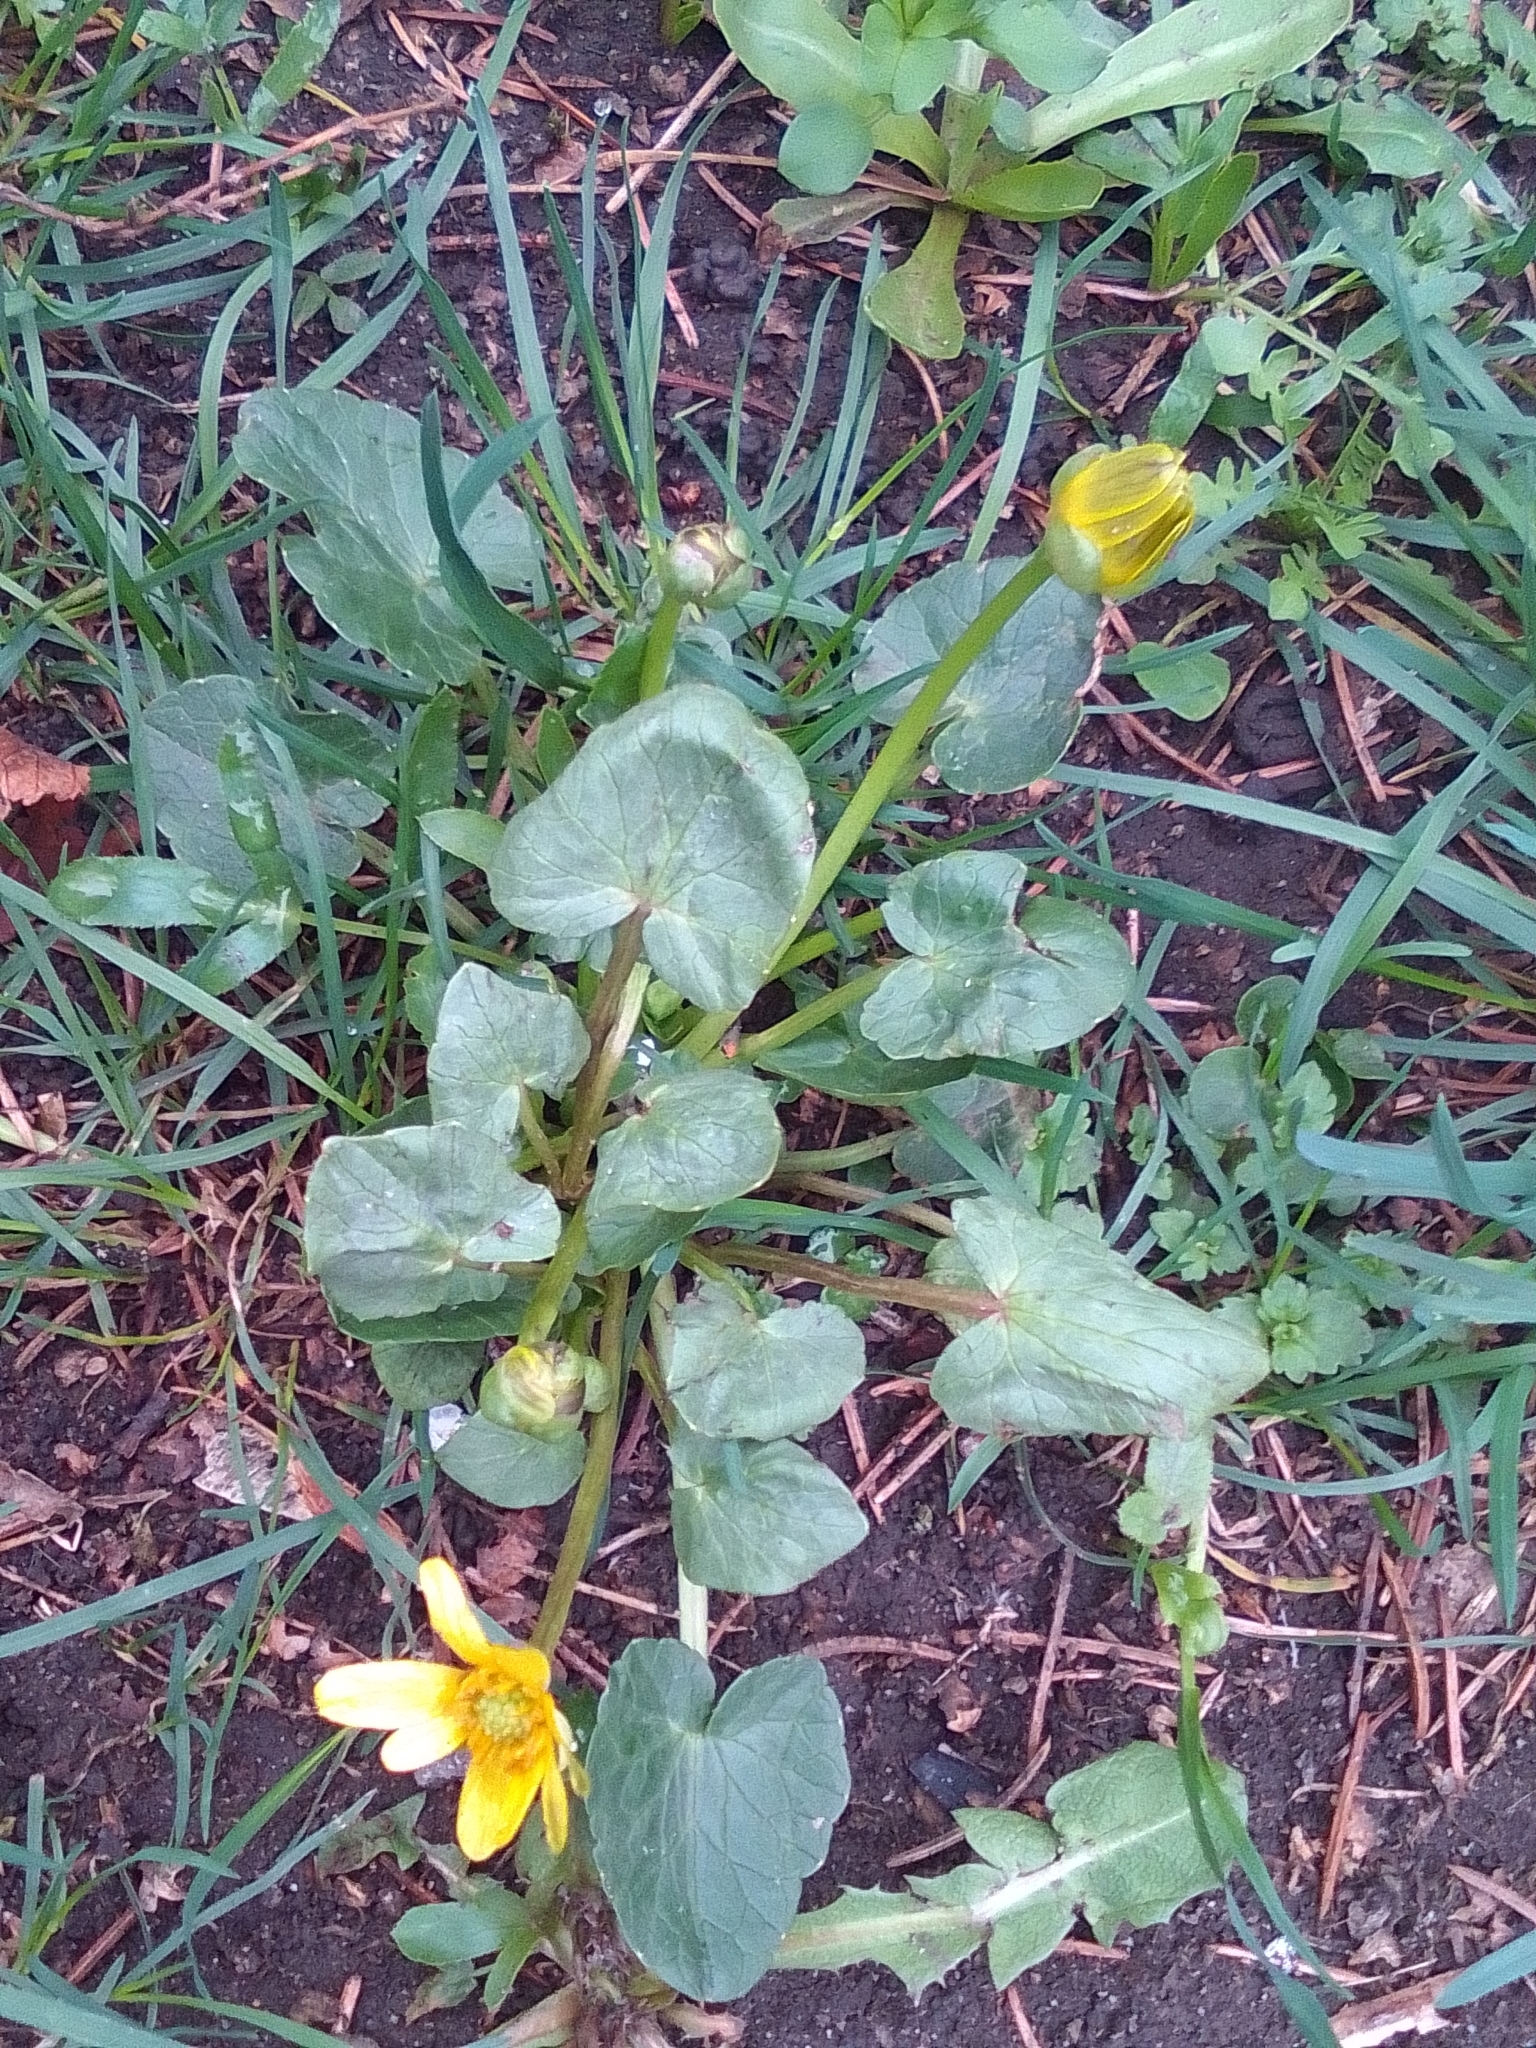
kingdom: Plantae
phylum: Tracheophyta
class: Magnoliopsida
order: Ranunculales
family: Ranunculaceae
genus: Ficaria
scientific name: Ficaria verna
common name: Lesser celandine
